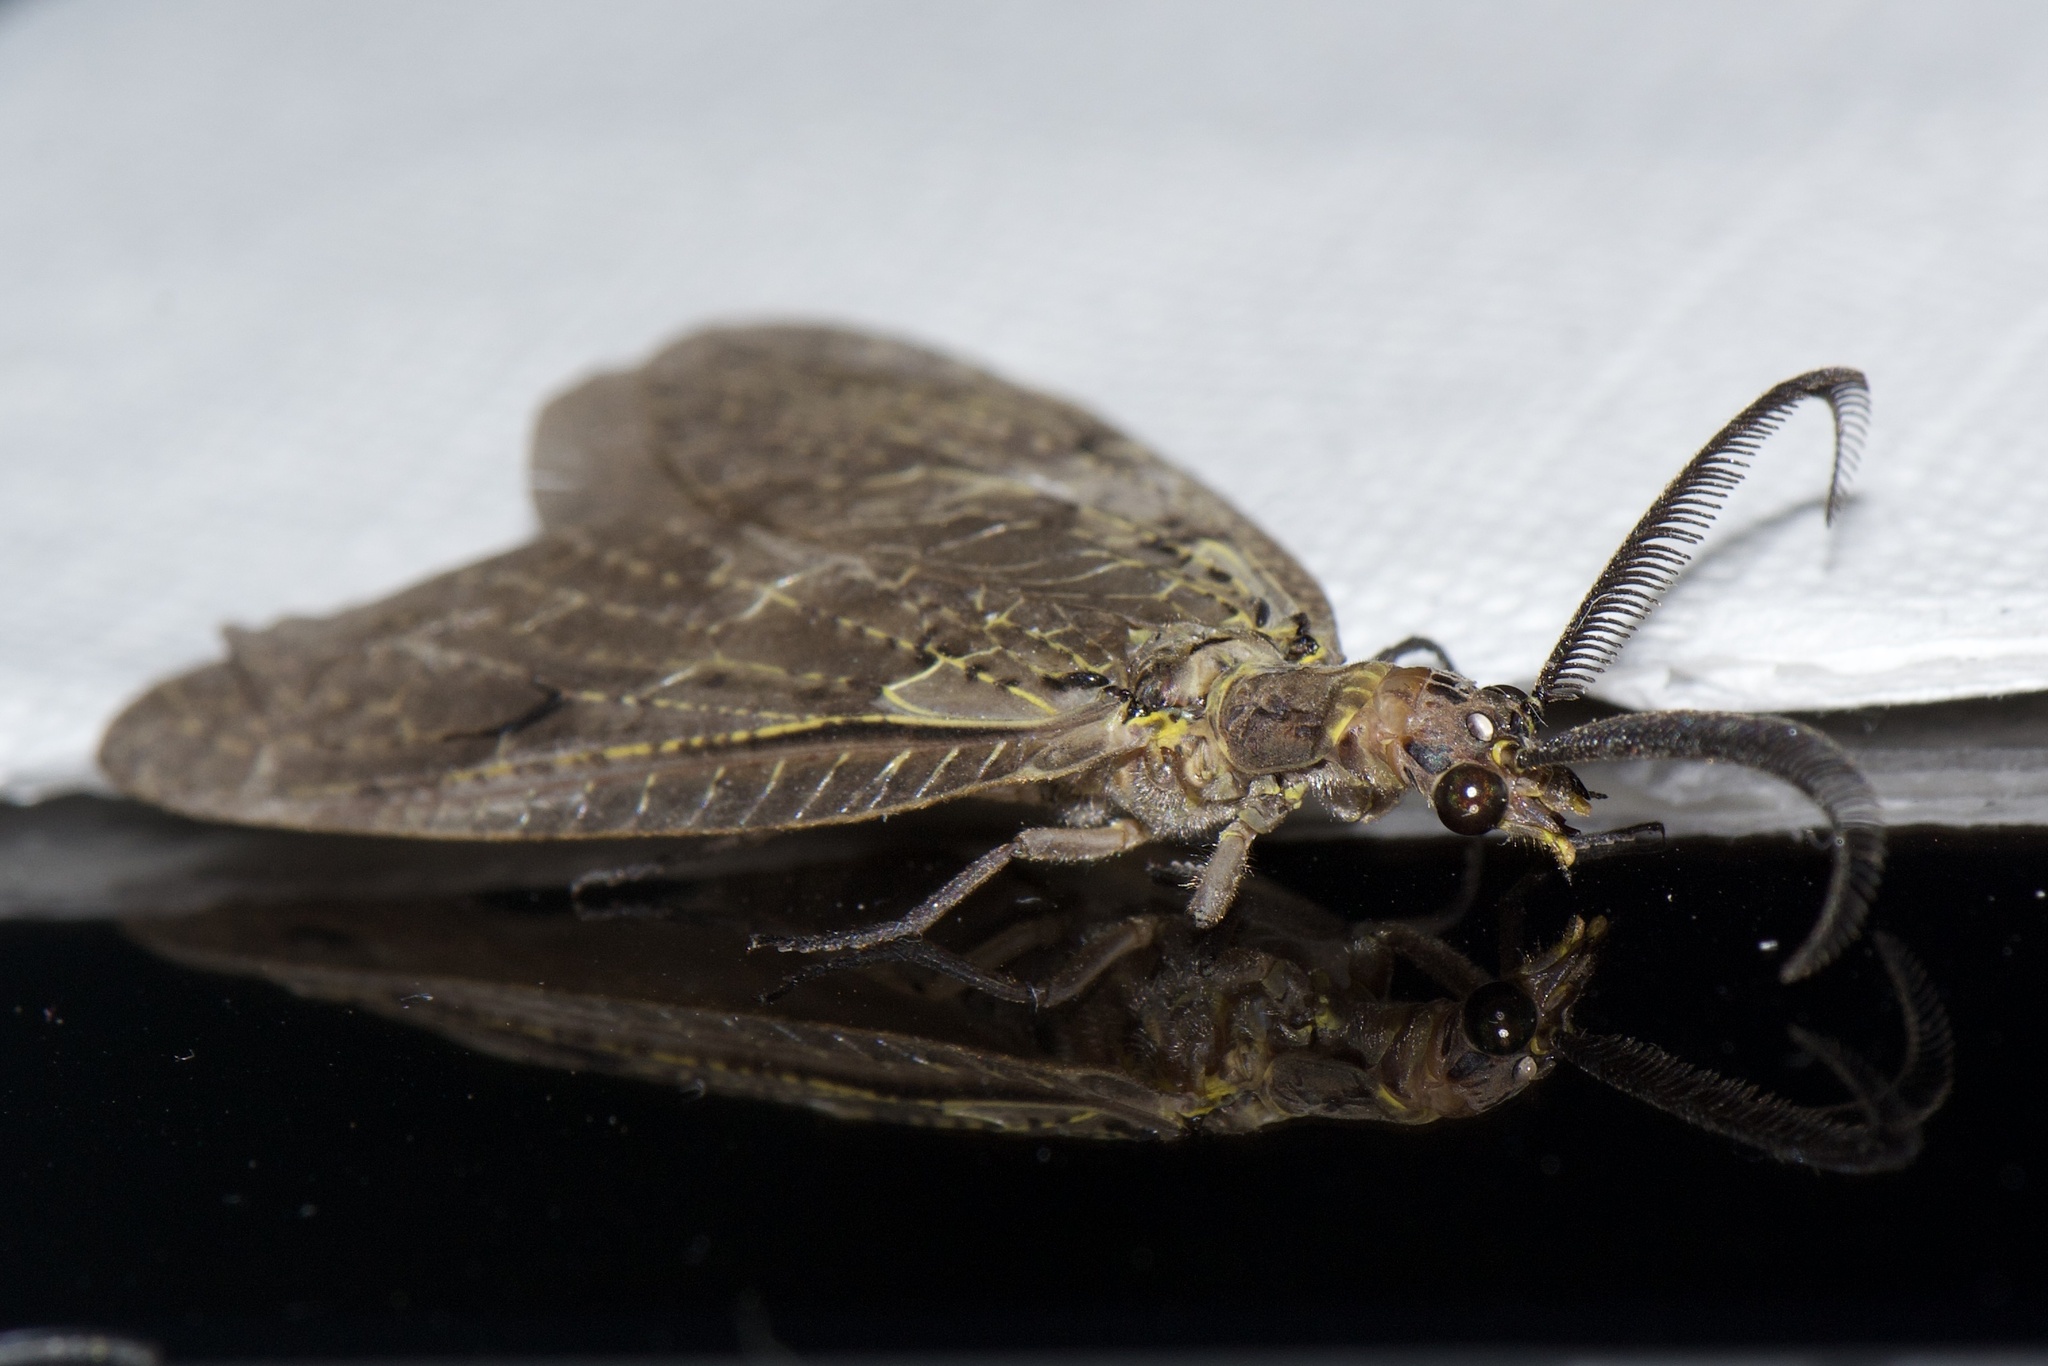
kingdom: Animalia
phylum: Arthropoda
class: Insecta
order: Megaloptera
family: Corydalidae
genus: Chauliodes
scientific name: Chauliodes rastricornis
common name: Spring fishfly
